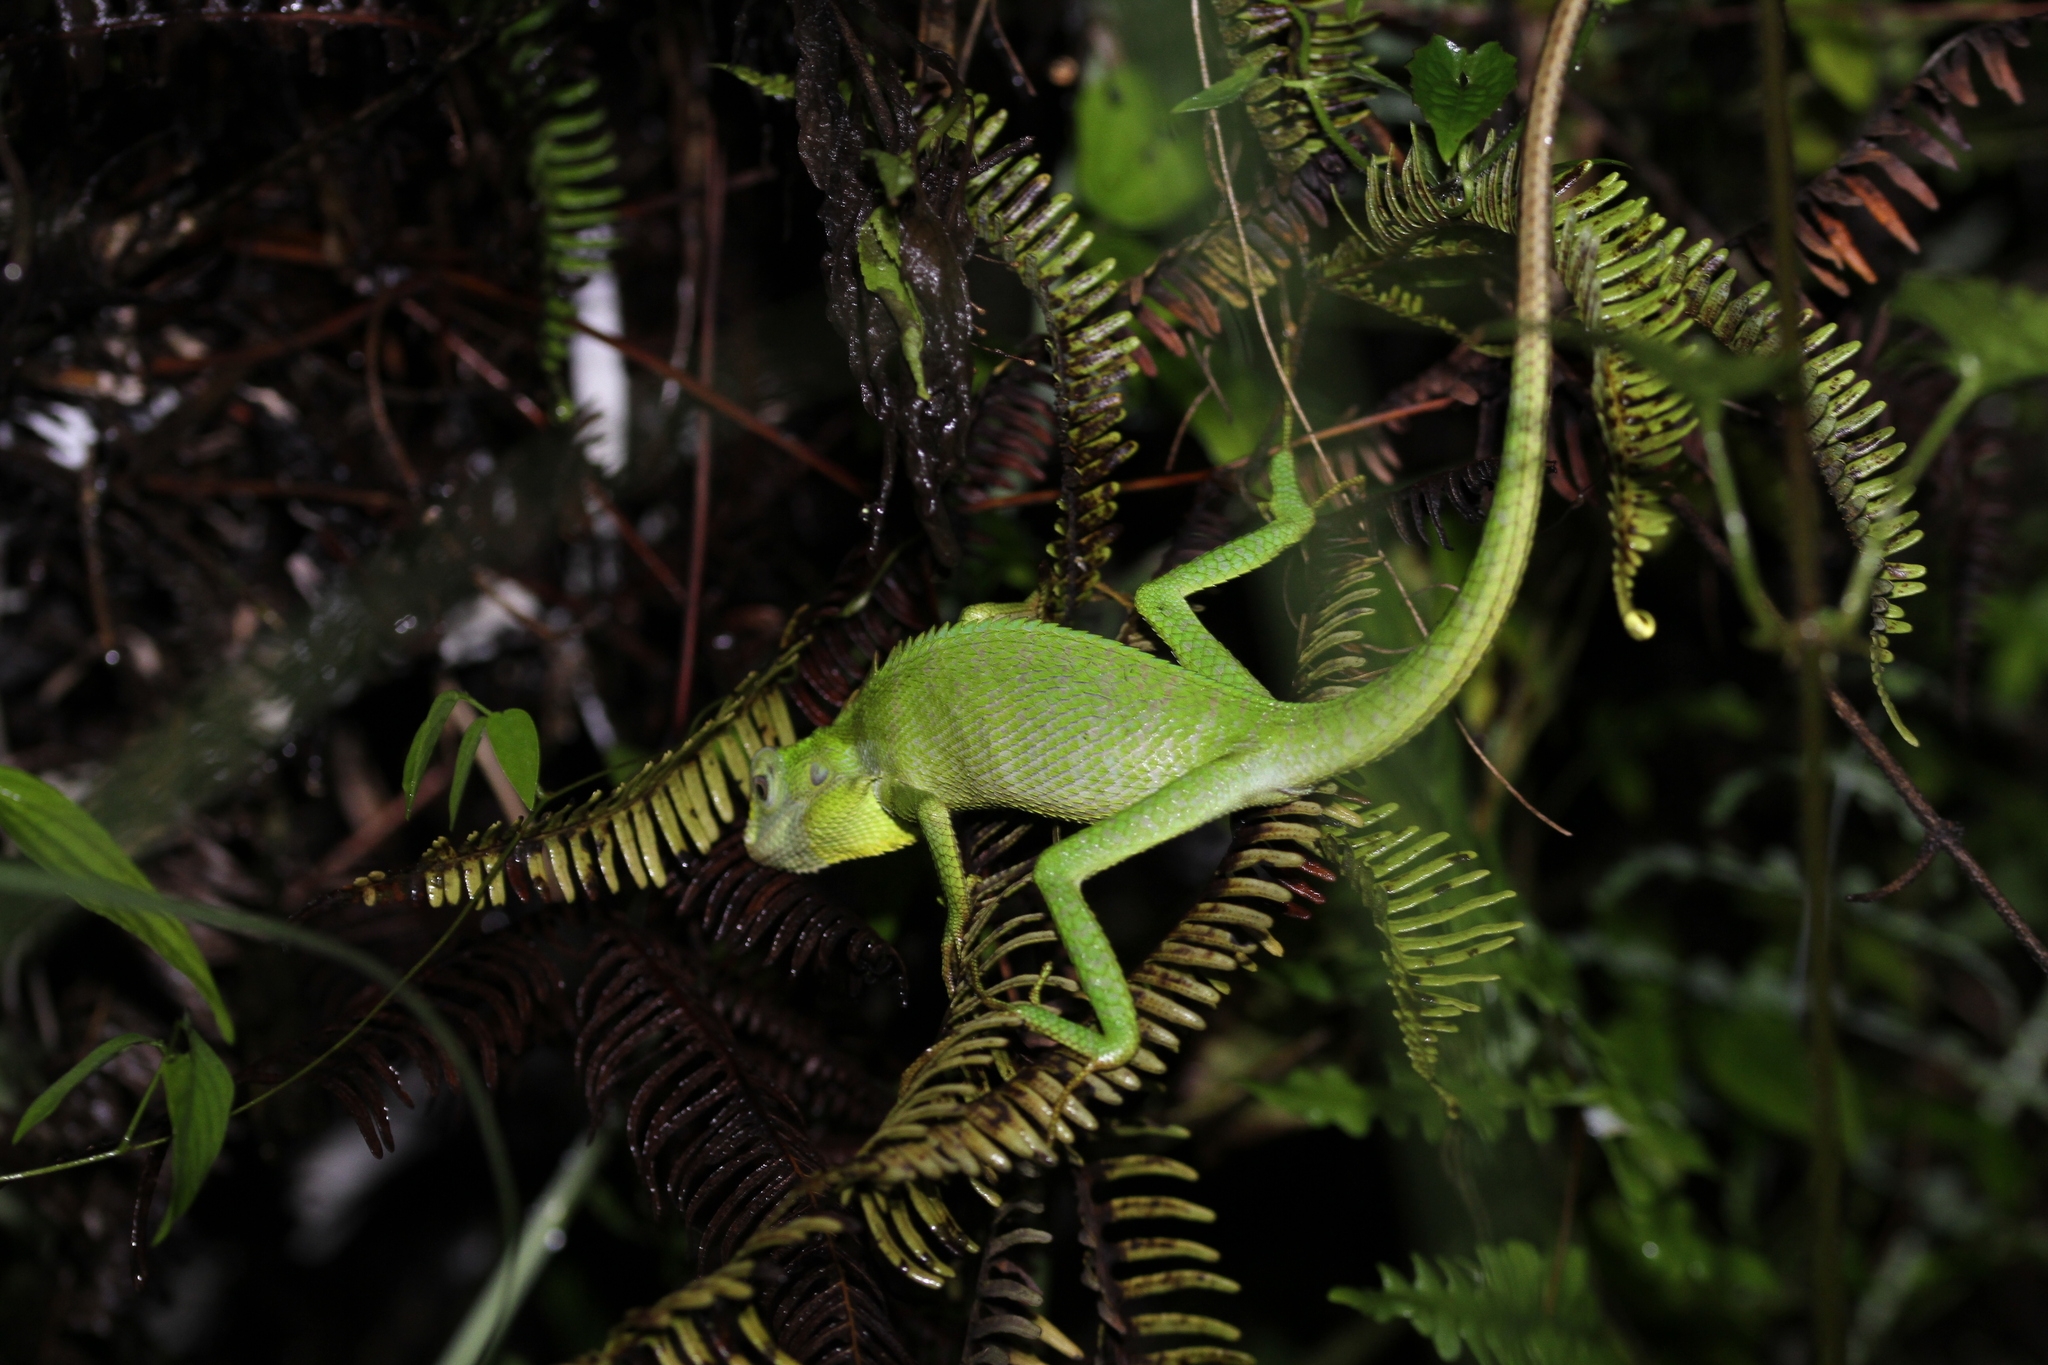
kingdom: Animalia
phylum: Chordata
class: Squamata
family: Agamidae
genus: Bronchocela
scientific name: Bronchocela jubata
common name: Maned forest lizard
